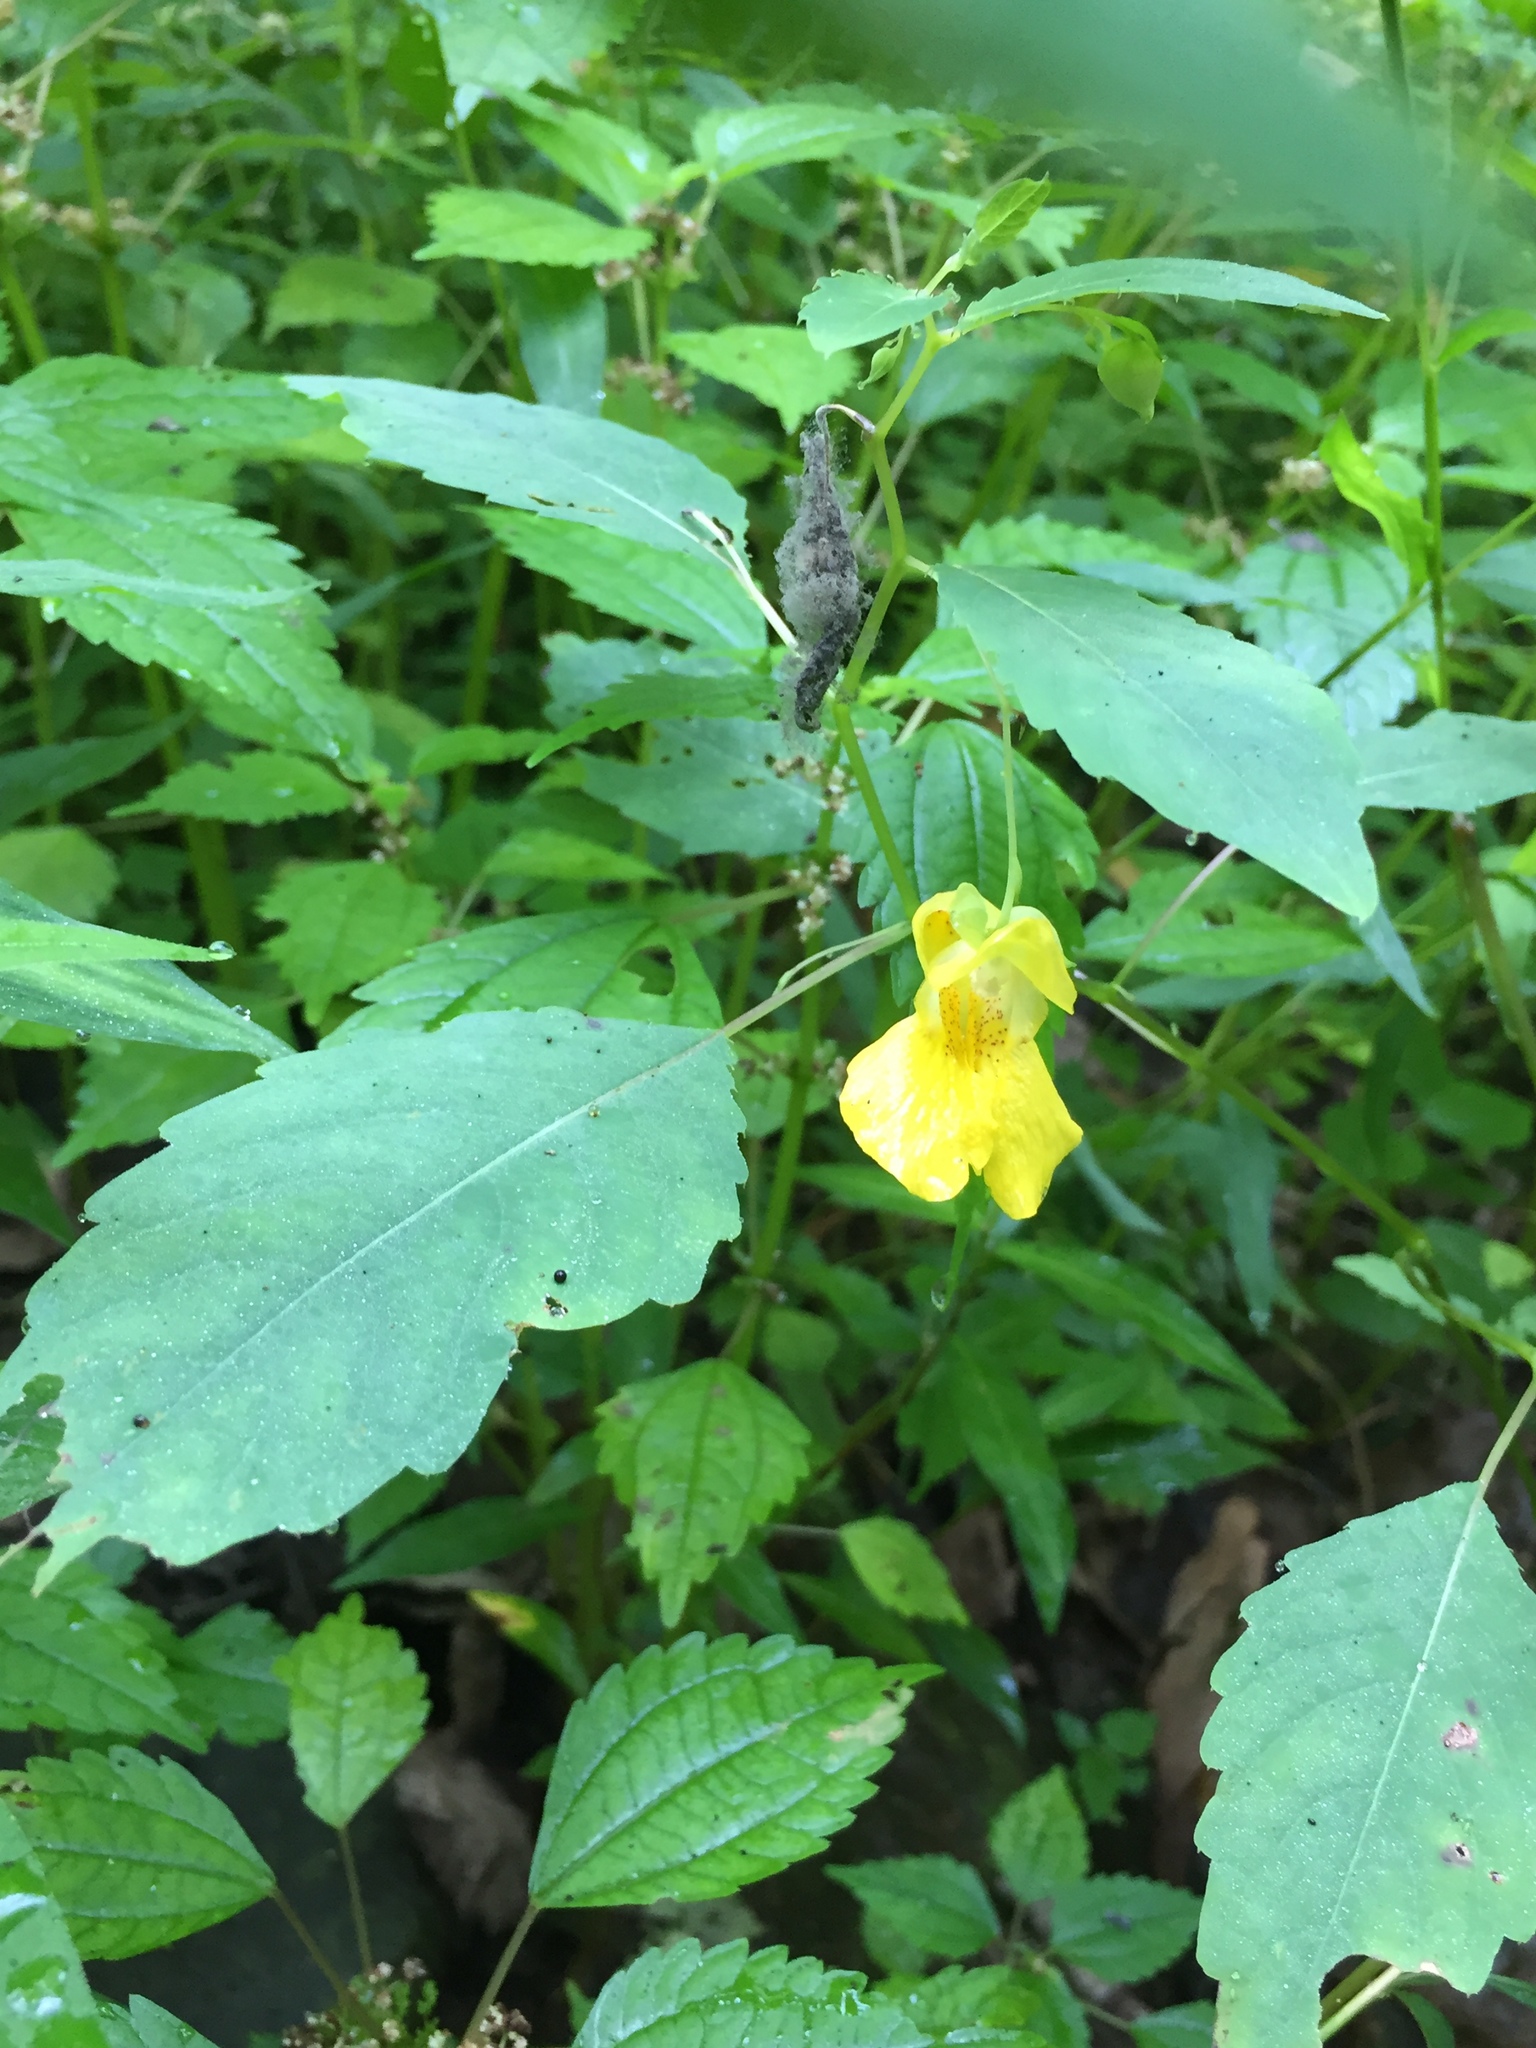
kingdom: Plantae
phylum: Tracheophyta
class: Magnoliopsida
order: Ericales
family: Balsaminaceae
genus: Impatiens
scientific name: Impatiens pallida
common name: Pale snapweed
